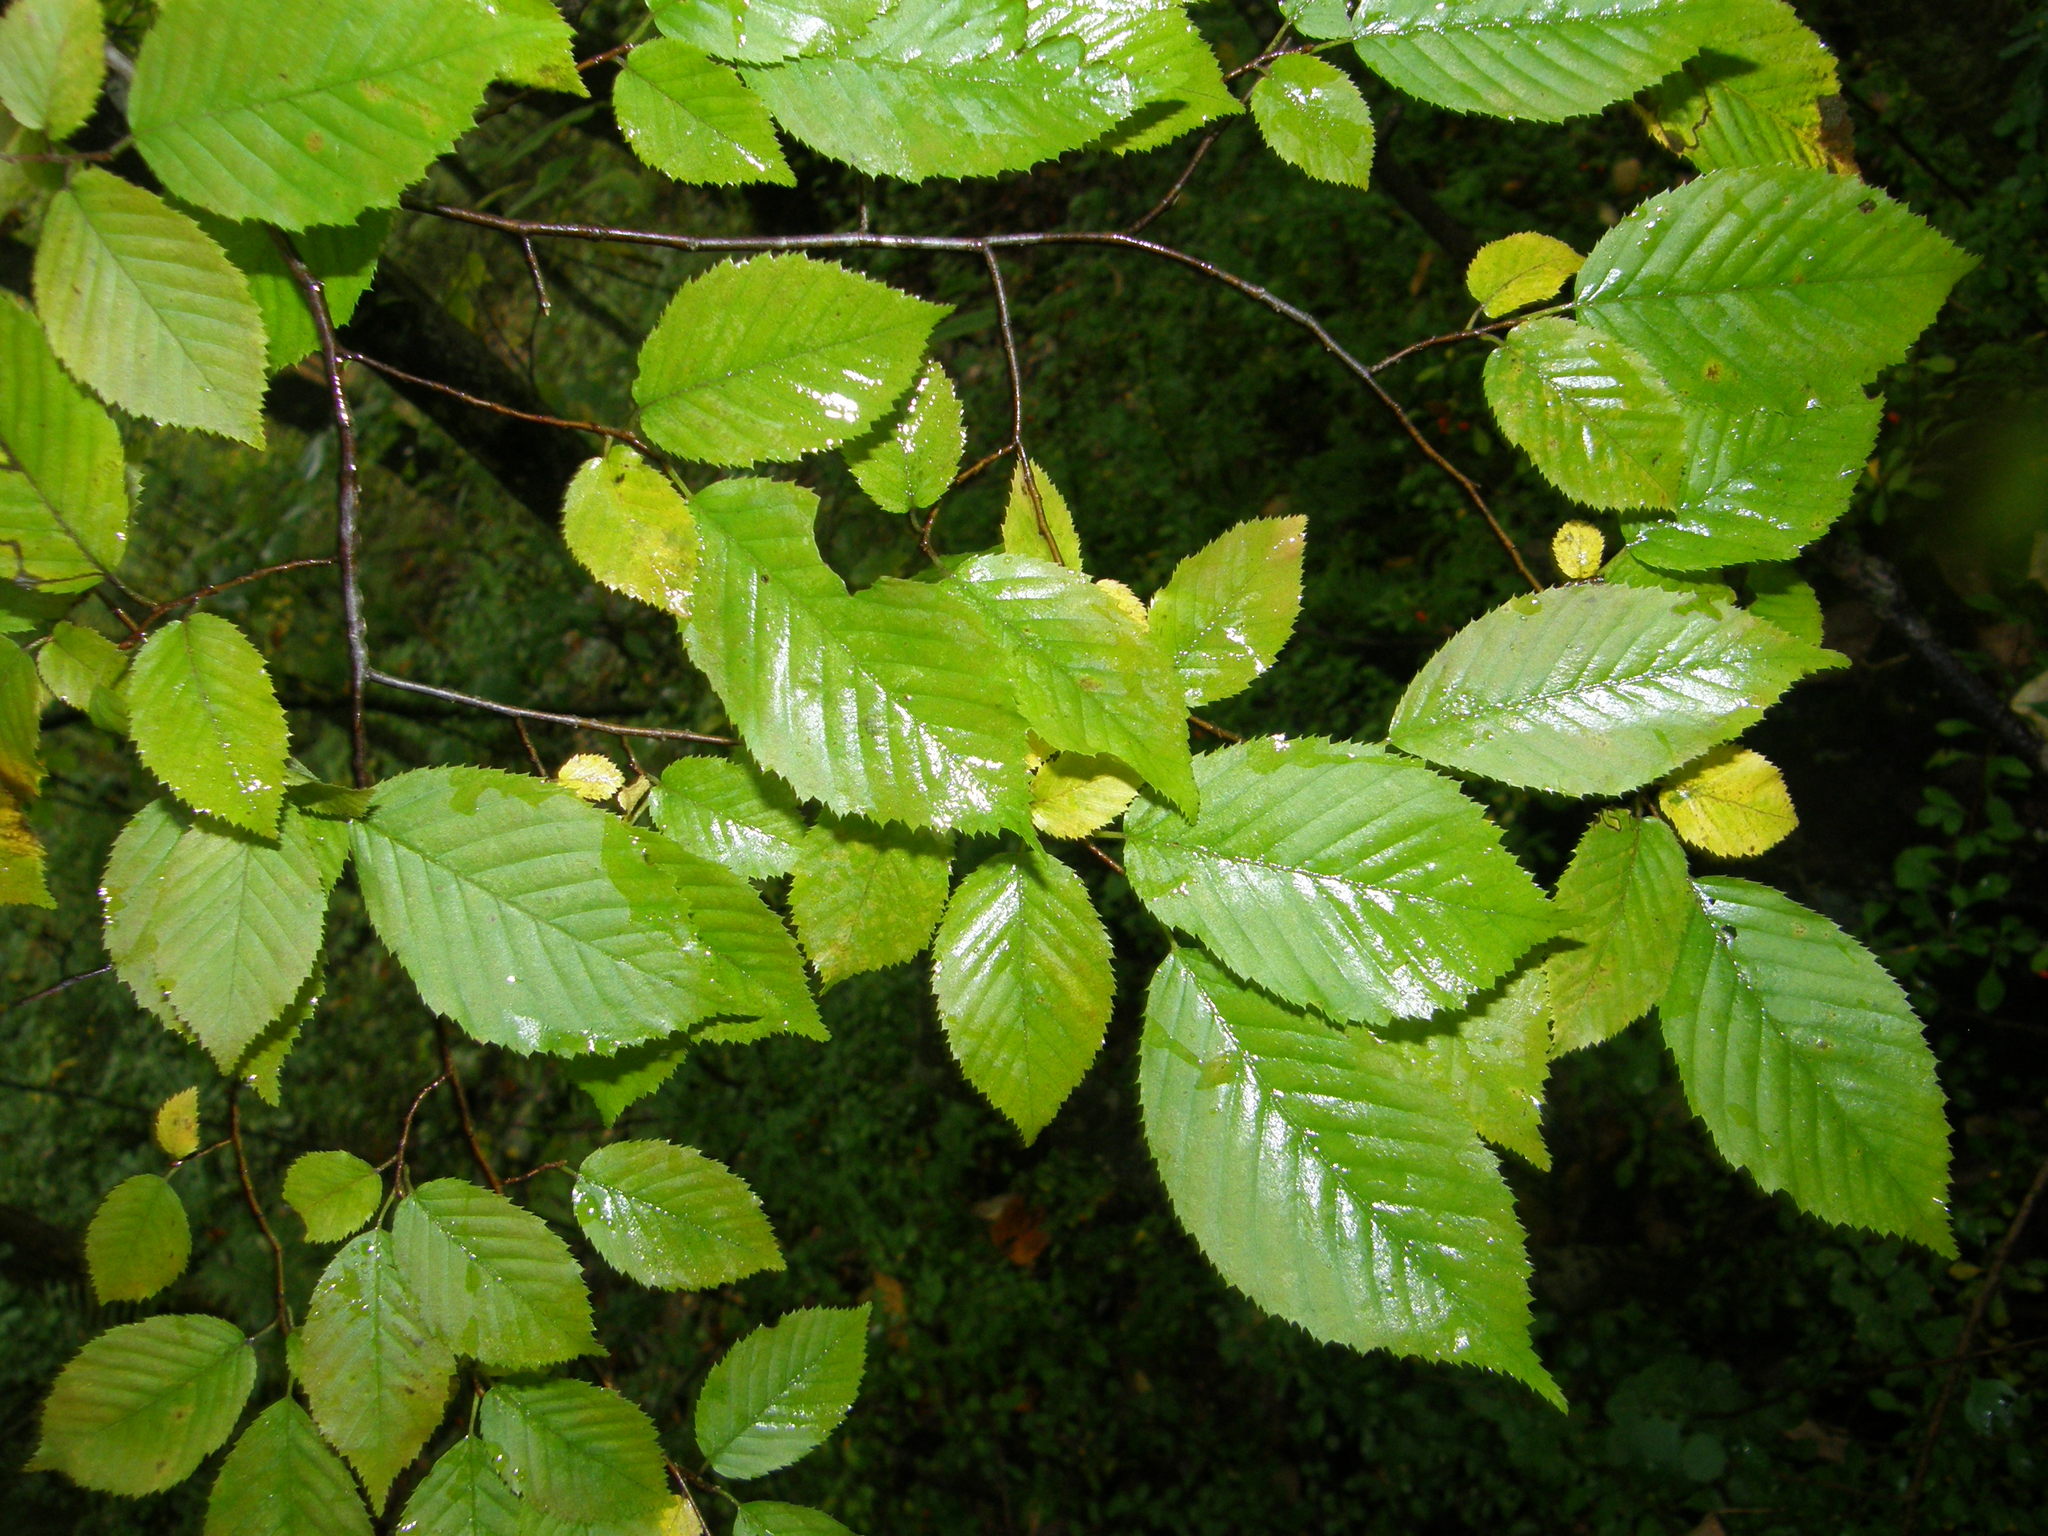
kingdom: Plantae
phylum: Tracheophyta
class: Magnoliopsida
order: Fagales
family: Betulaceae
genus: Carpinus
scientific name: Carpinus caroliniana
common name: American hornbeam
